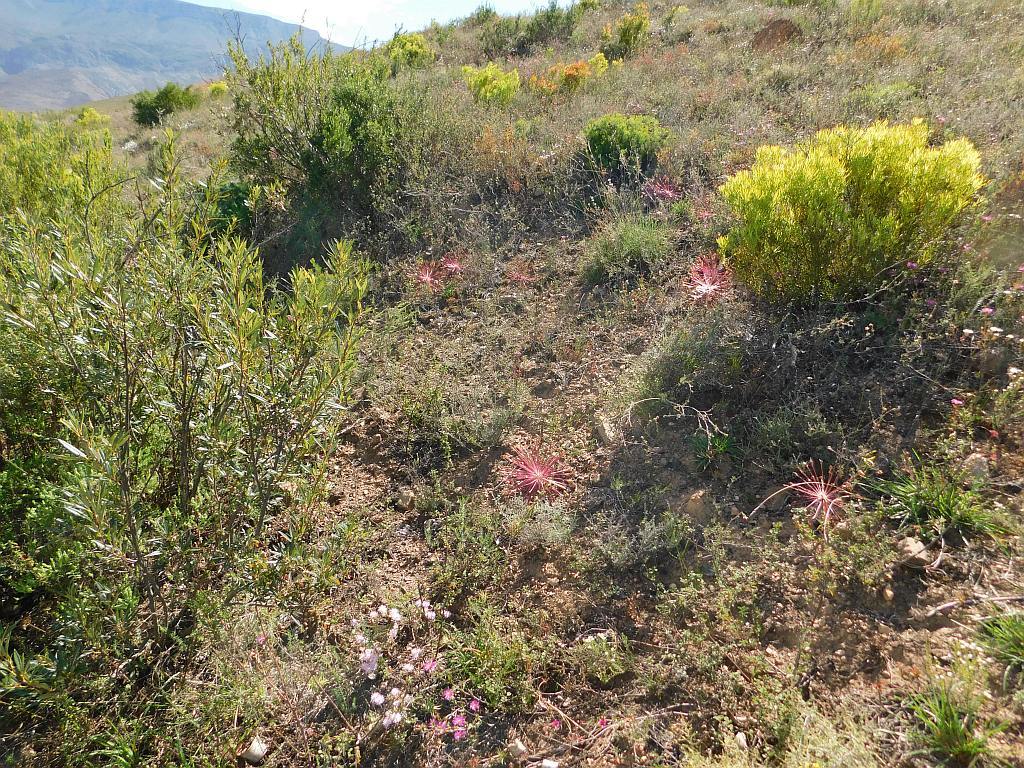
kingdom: Plantae
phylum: Tracheophyta
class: Liliopsida
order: Asparagales
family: Amaryllidaceae
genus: Crossyne
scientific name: Crossyne guttata
